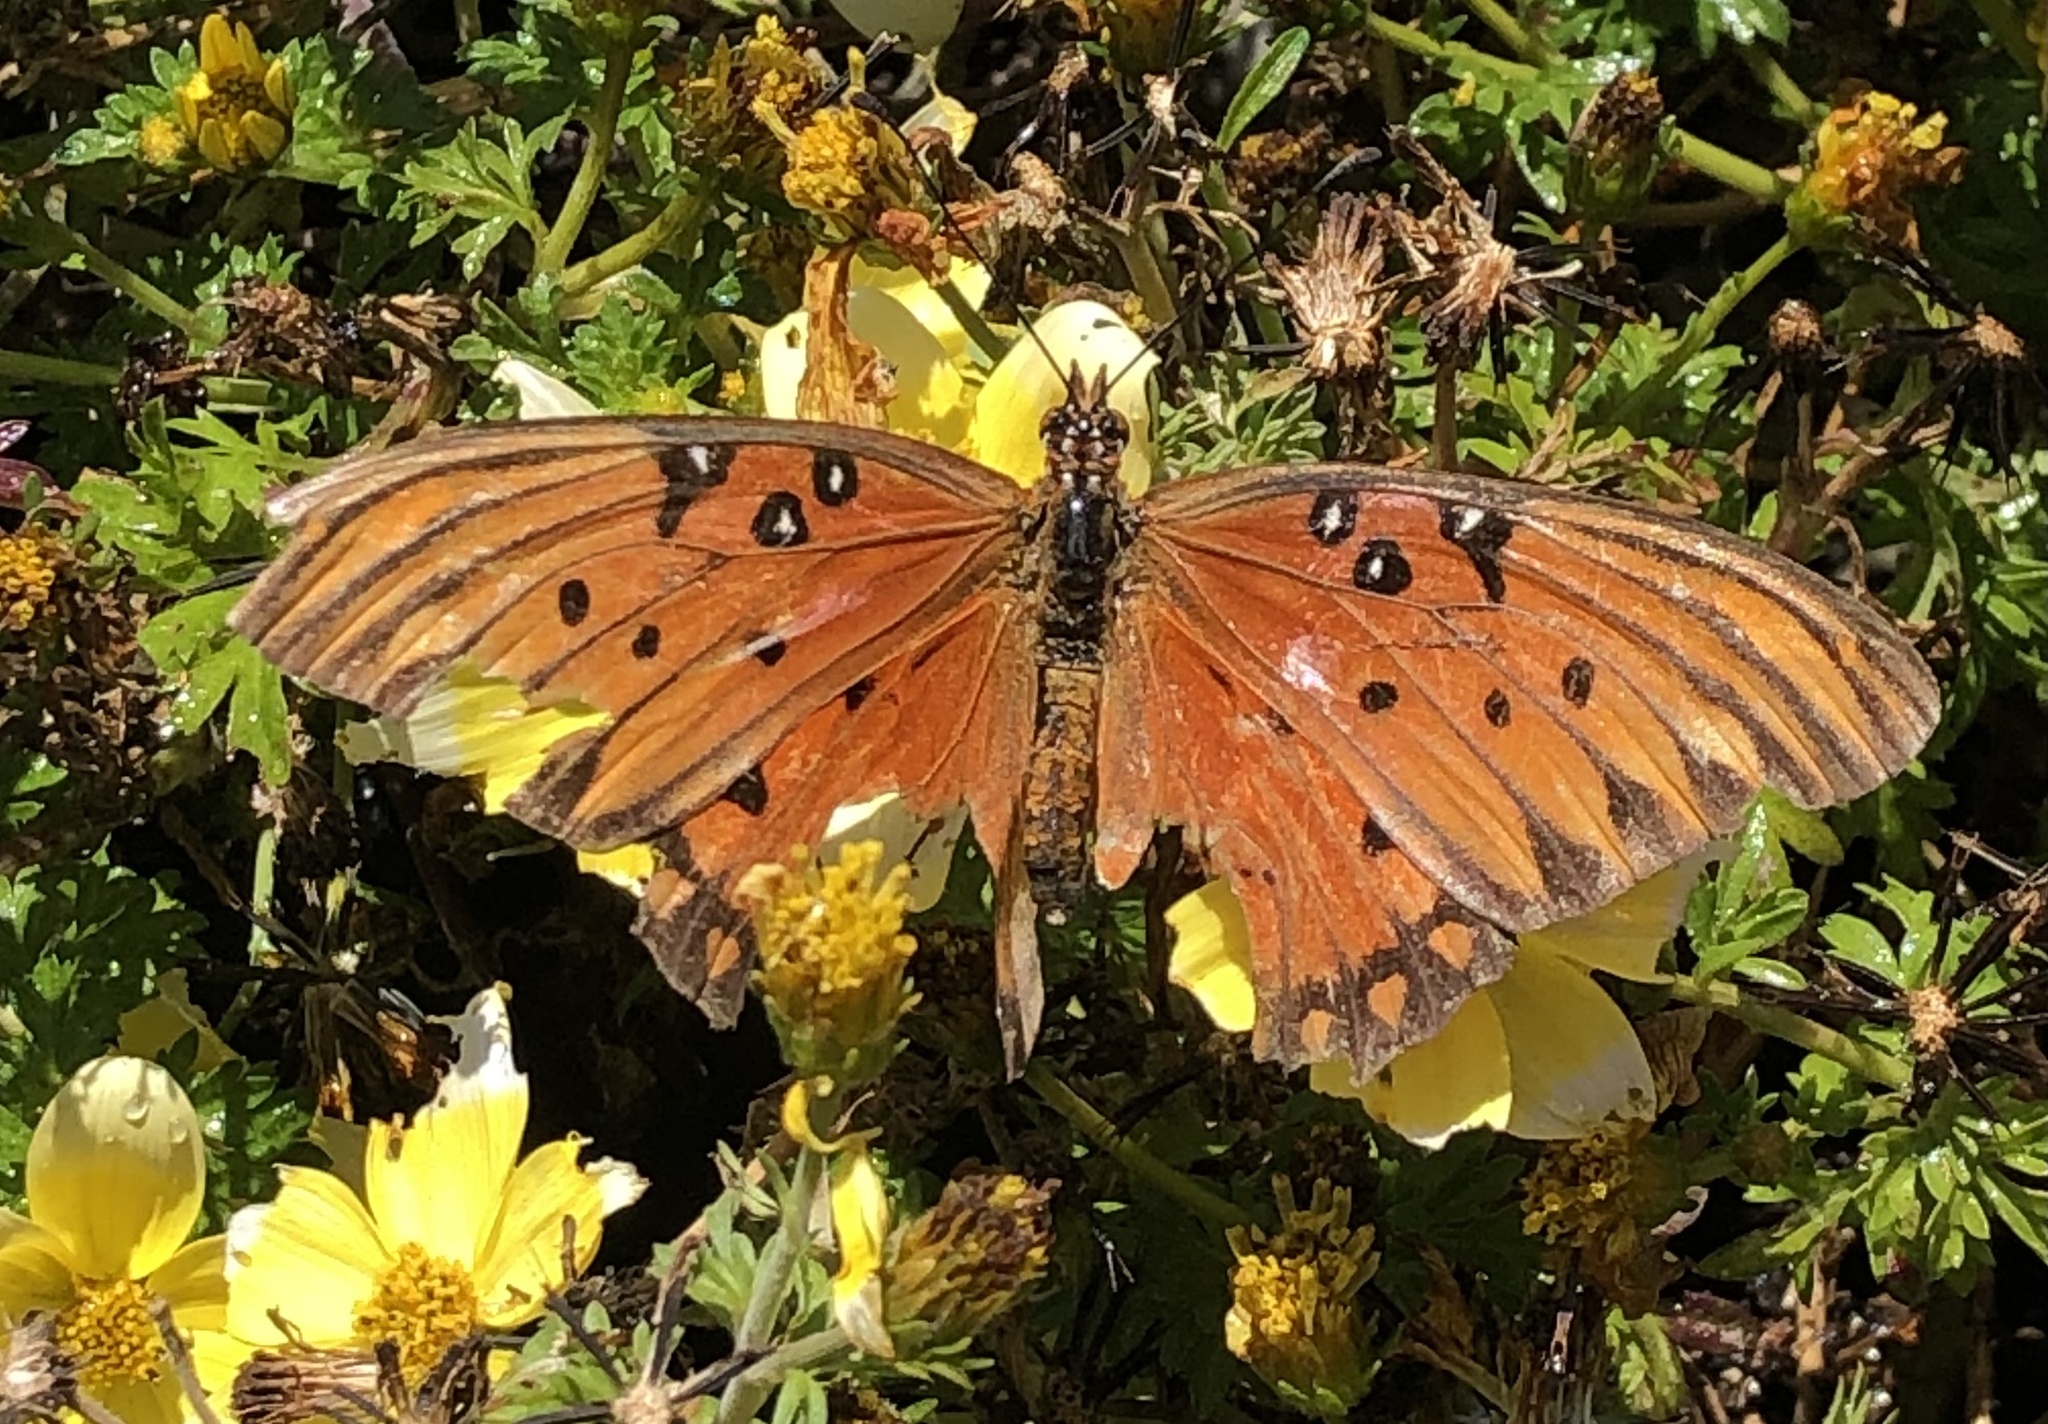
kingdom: Animalia
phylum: Arthropoda
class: Insecta
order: Lepidoptera
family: Nymphalidae
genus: Dione
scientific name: Dione vanillae
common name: Gulf fritillary
